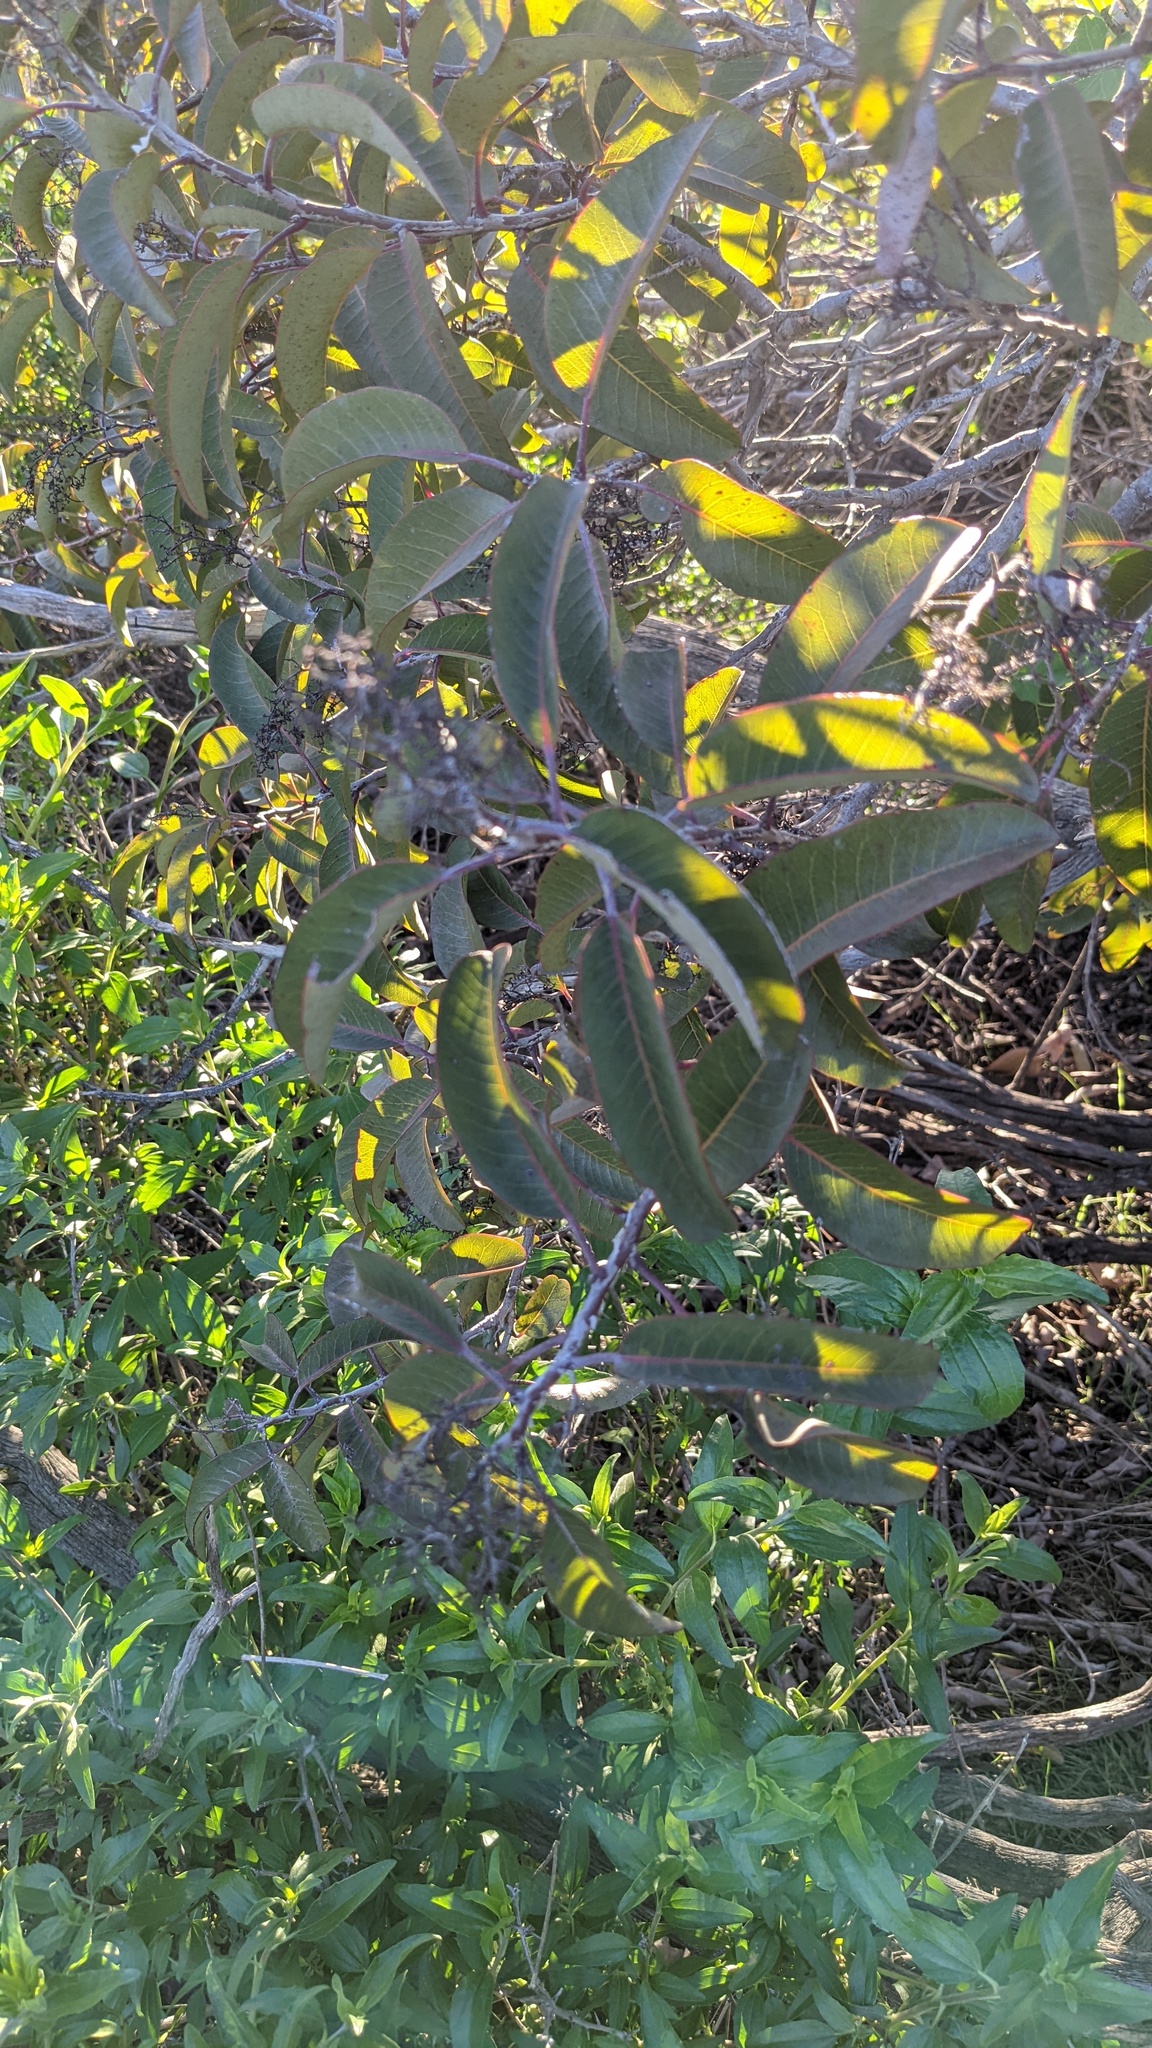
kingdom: Plantae
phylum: Tracheophyta
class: Magnoliopsida
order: Sapindales
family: Anacardiaceae
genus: Malosma
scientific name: Malosma laurina
